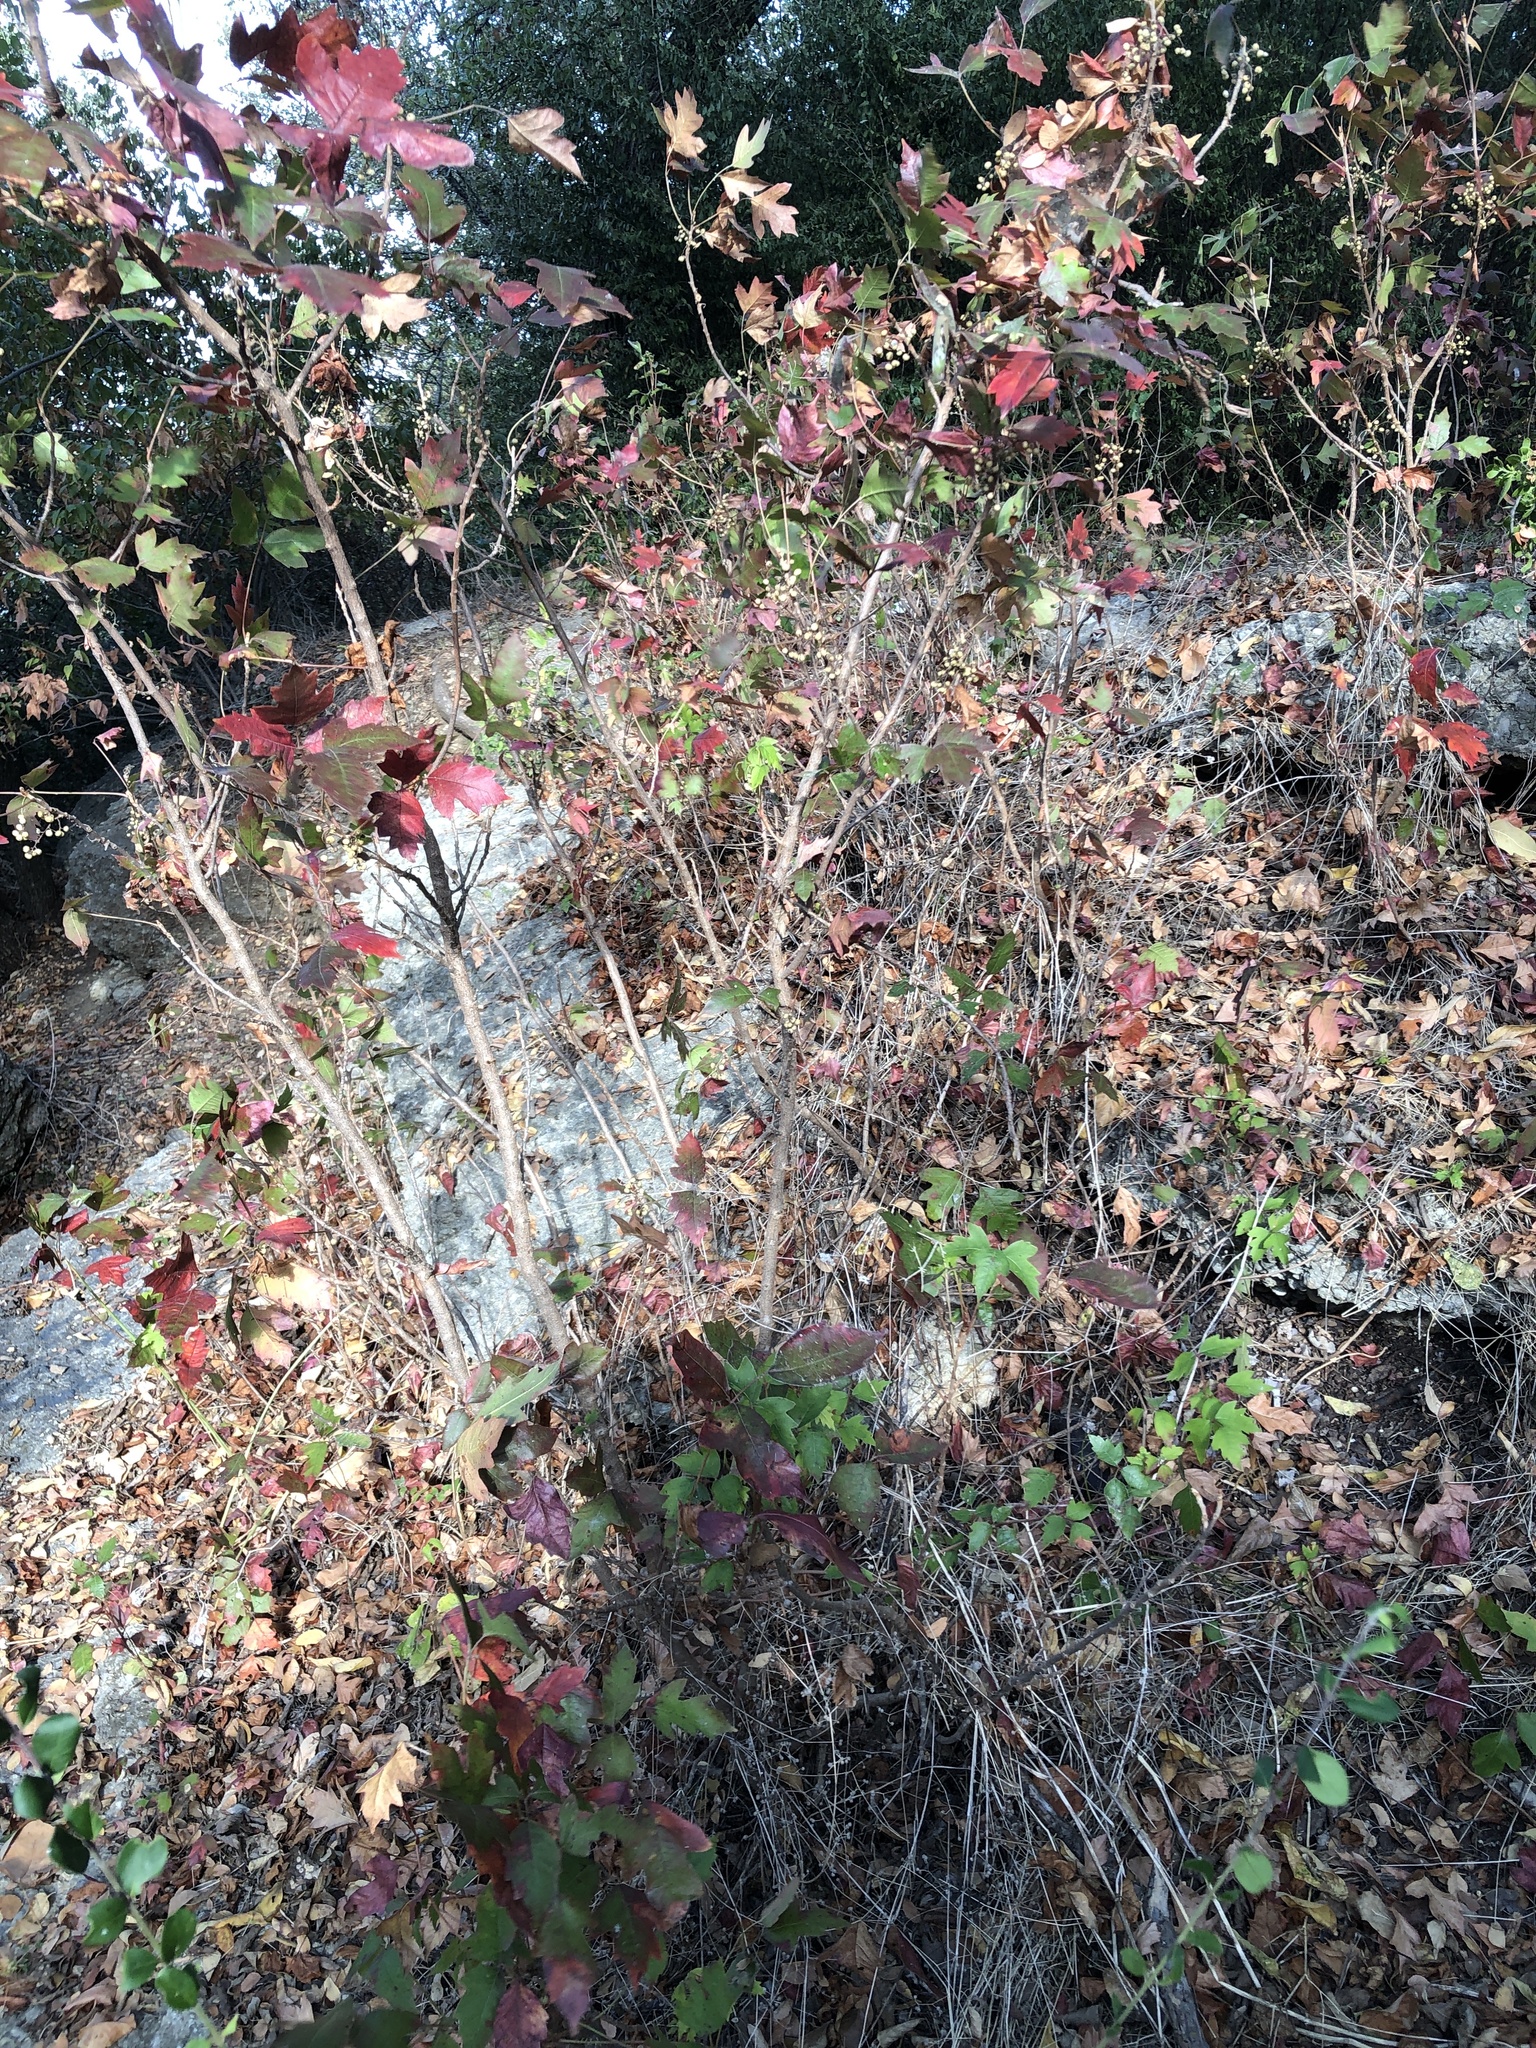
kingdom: Plantae
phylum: Tracheophyta
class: Magnoliopsida
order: Sapindales
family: Anacardiaceae
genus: Toxicodendron
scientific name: Toxicodendron radicans
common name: Poison ivy
